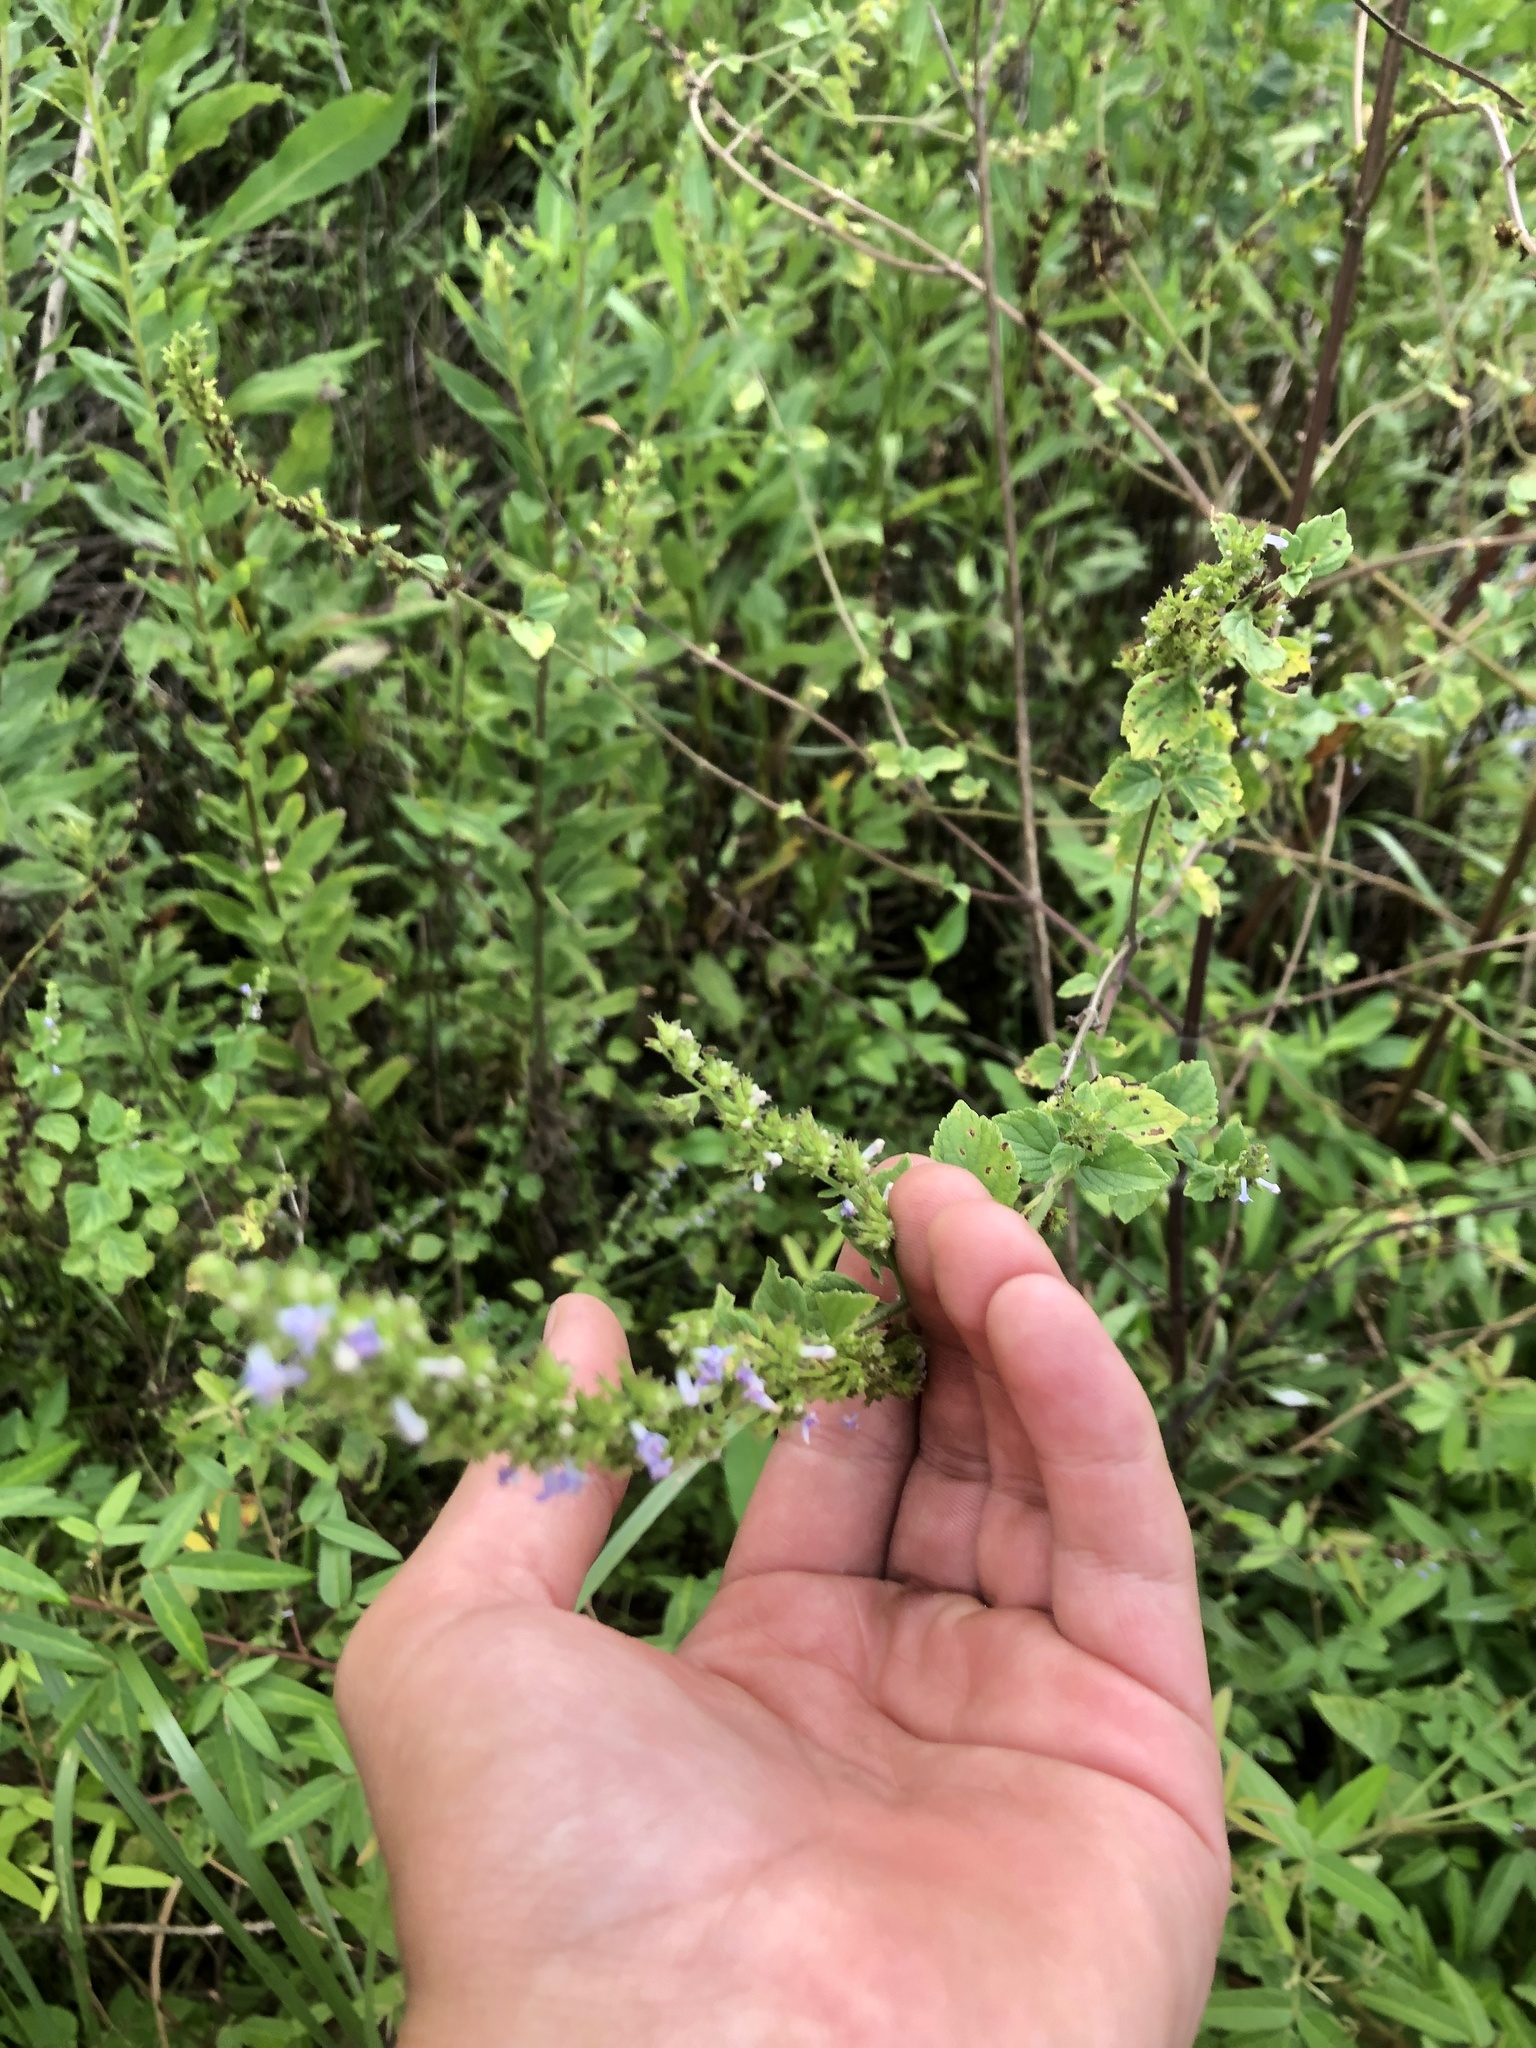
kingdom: Plantae
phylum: Tracheophyta
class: Magnoliopsida
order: Lamiales
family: Lamiaceae
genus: Cantinoa
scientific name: Cantinoa mutabilis
